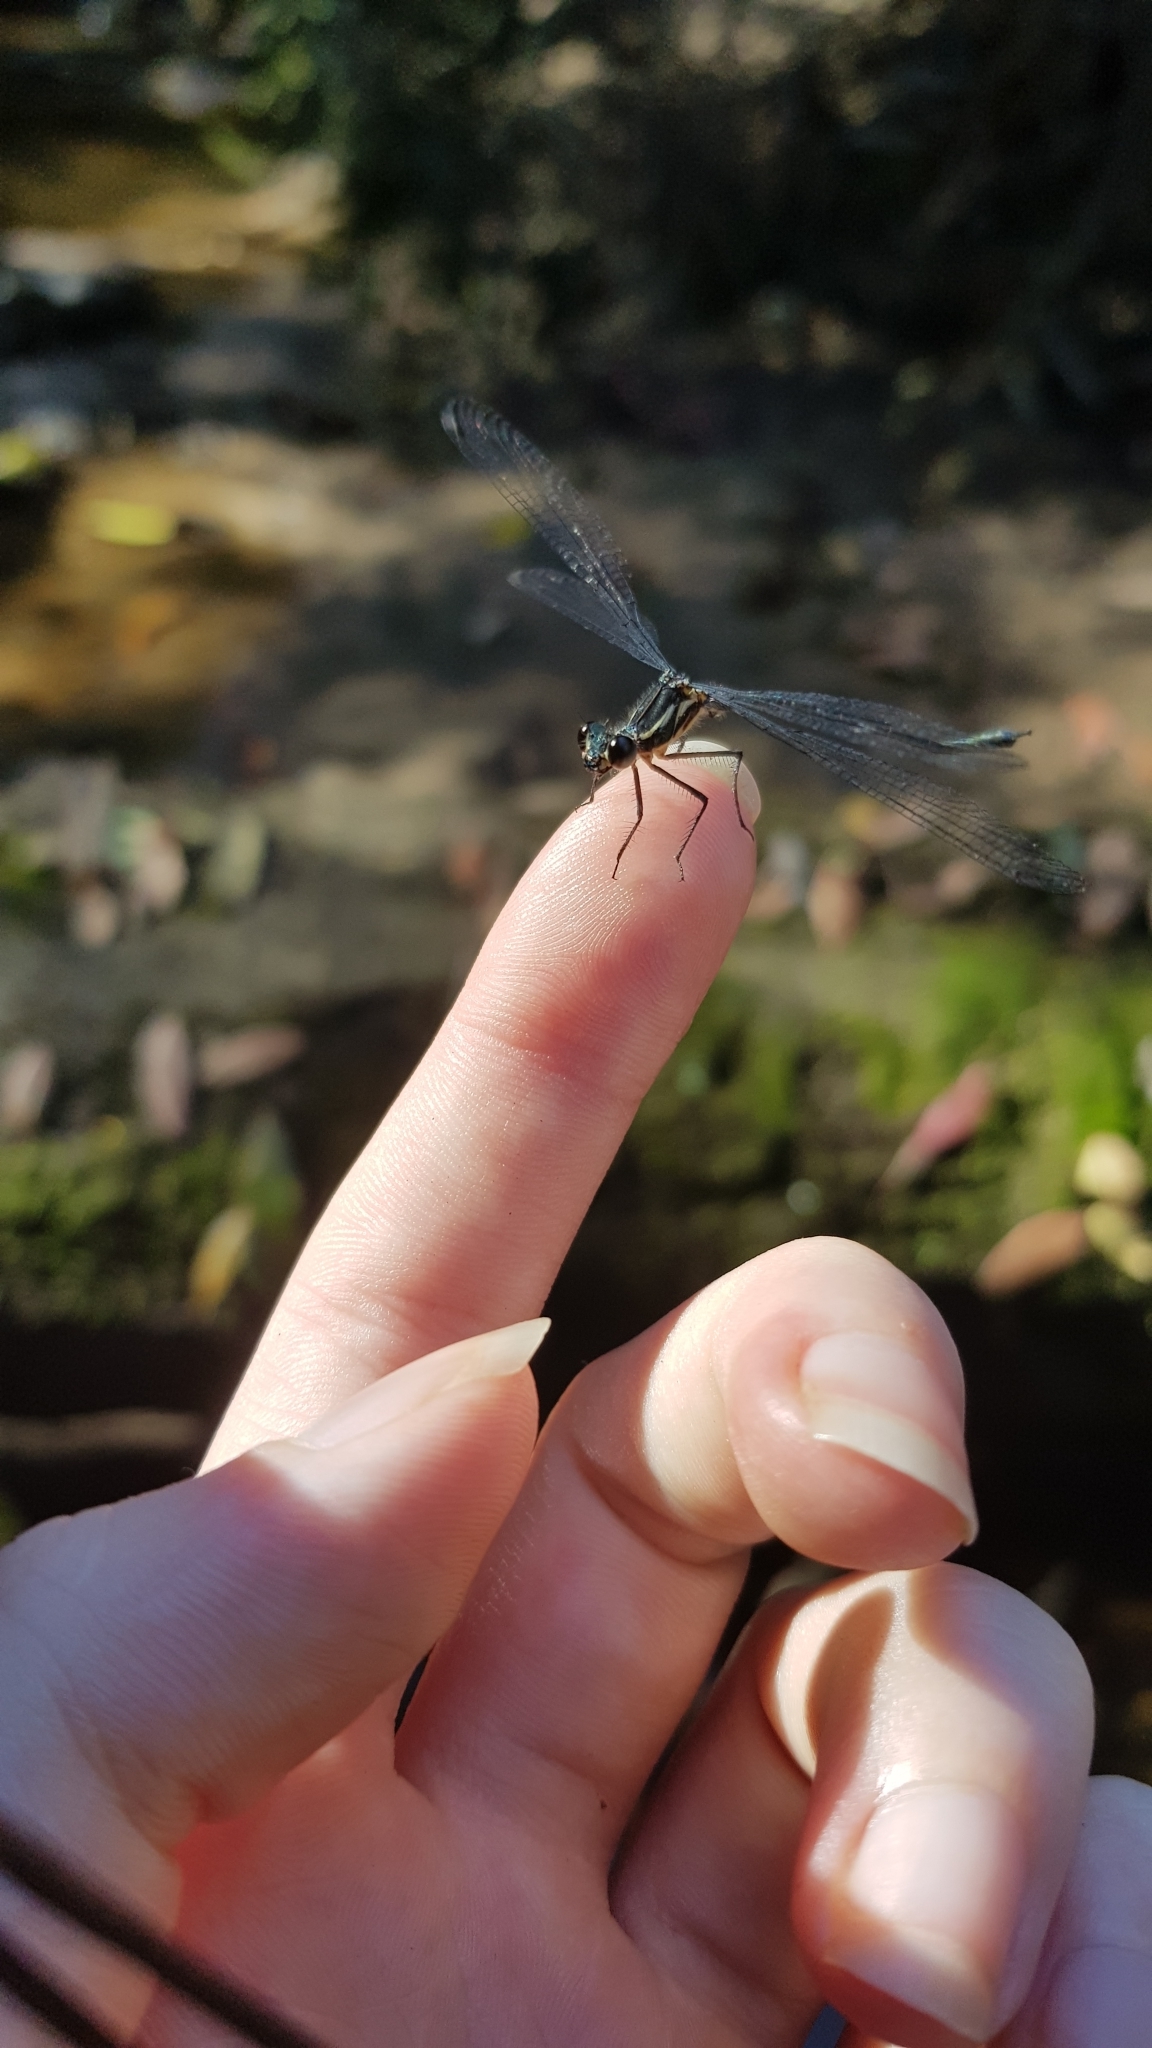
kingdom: Animalia
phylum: Arthropoda
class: Insecta
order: Odonata
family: Argiolestidae
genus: Austroargiolestes
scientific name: Austroargiolestes icteromelas
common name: Common flatwing
